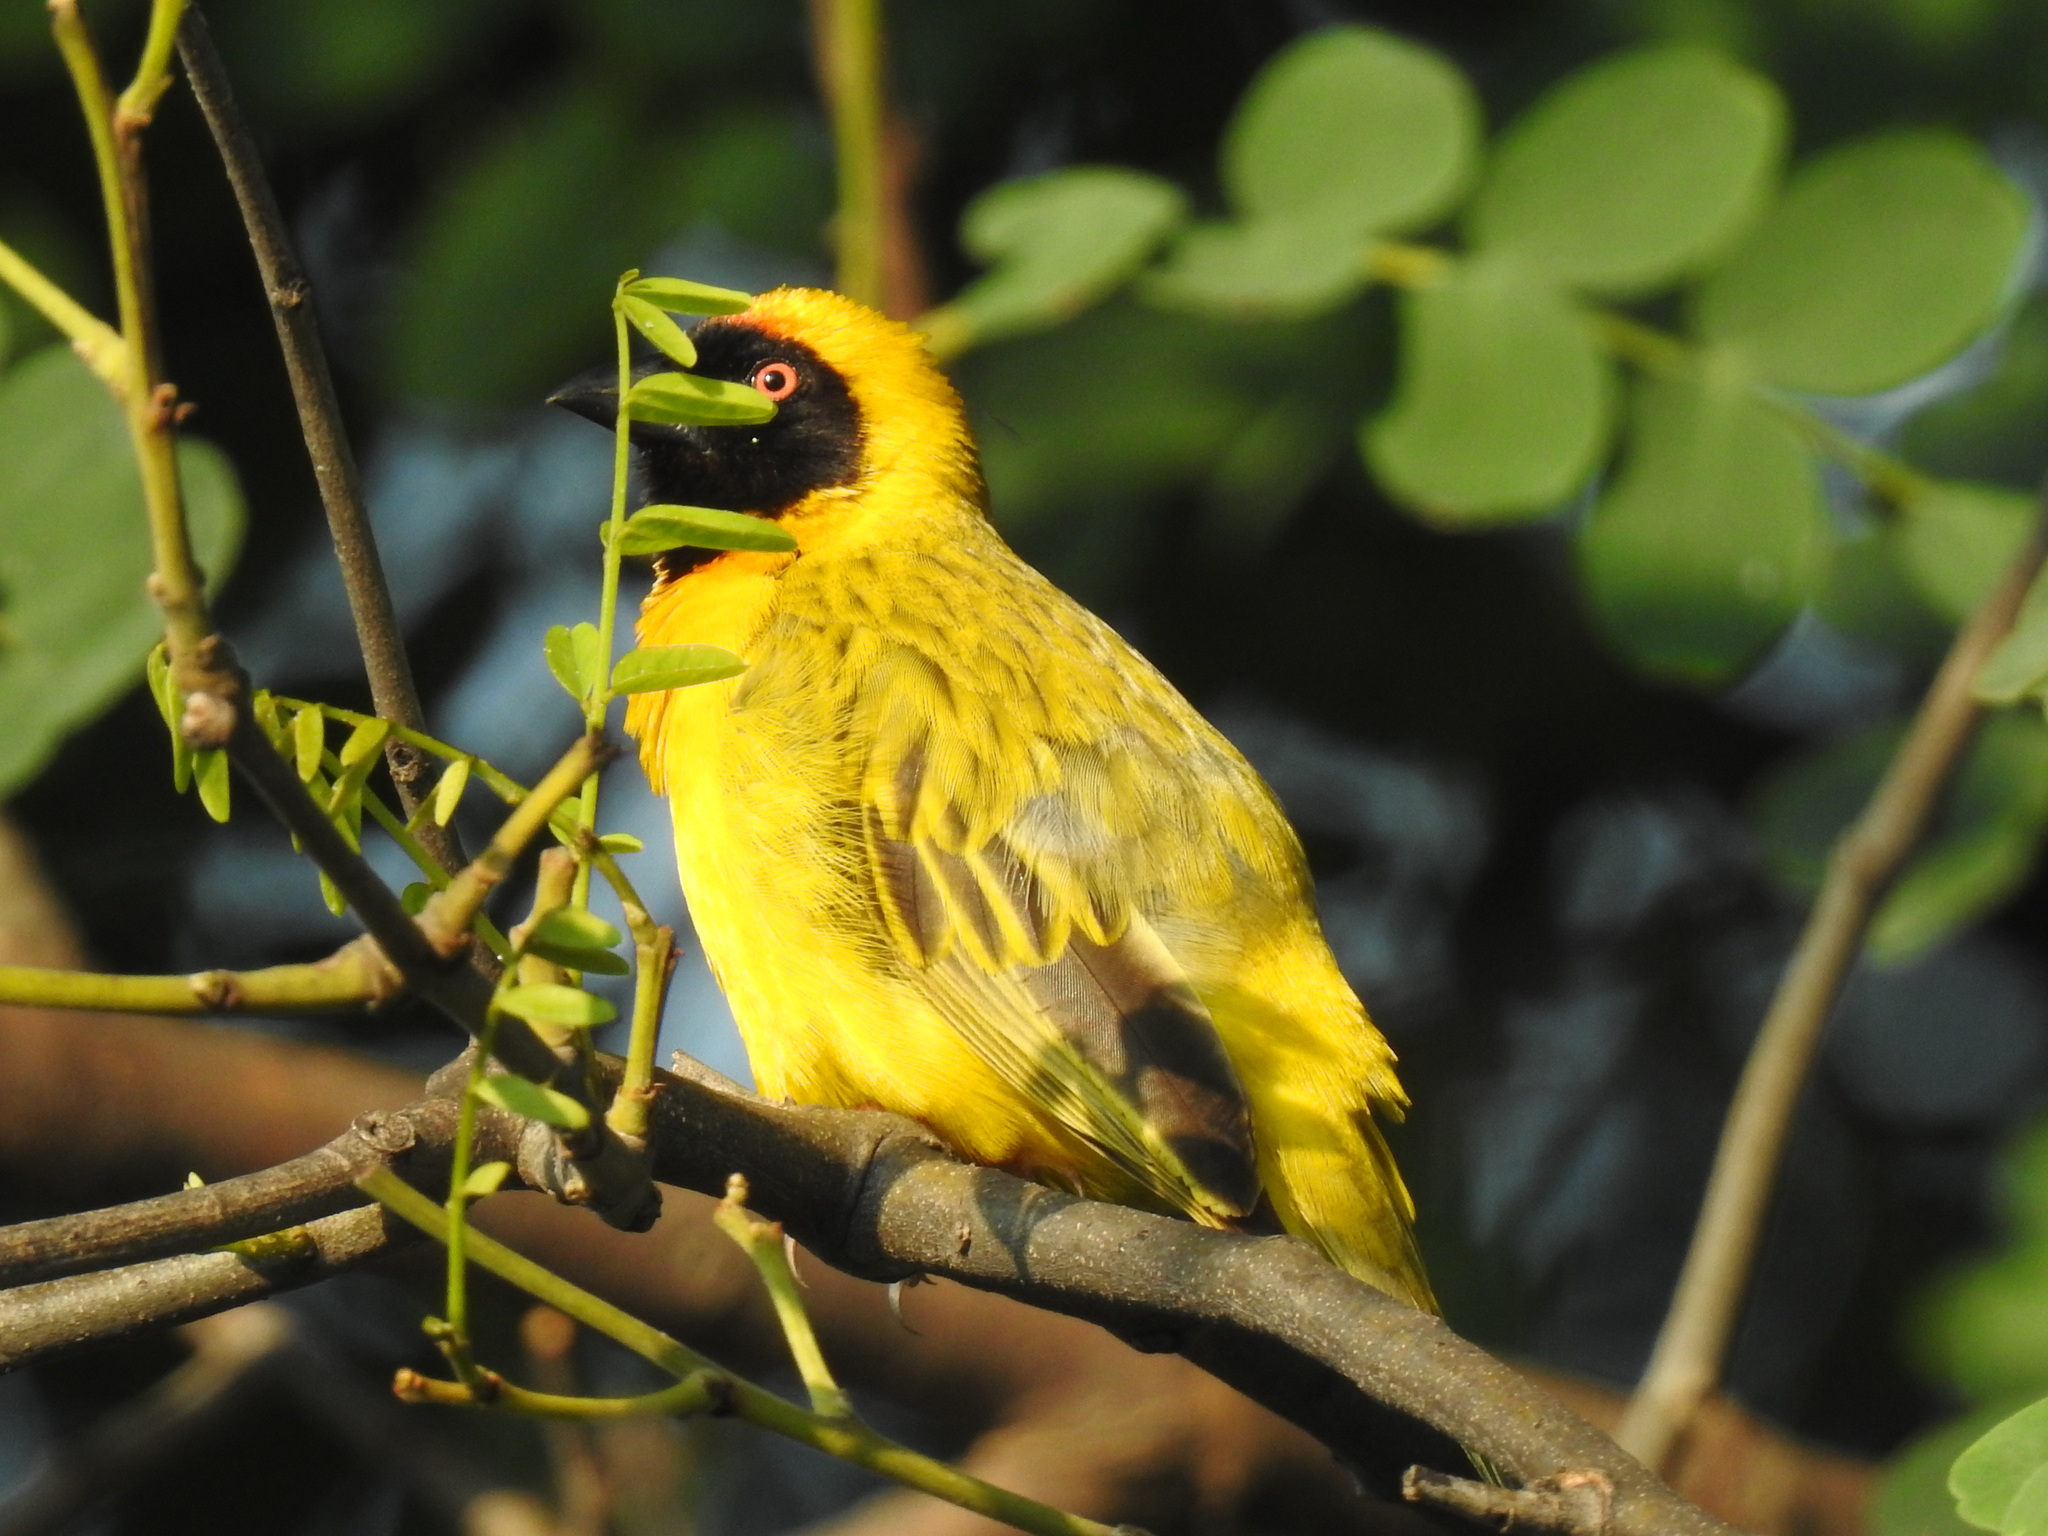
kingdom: Animalia
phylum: Chordata
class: Aves
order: Passeriformes
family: Ploceidae
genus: Ploceus
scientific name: Ploceus velatus
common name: Southern masked weaver
